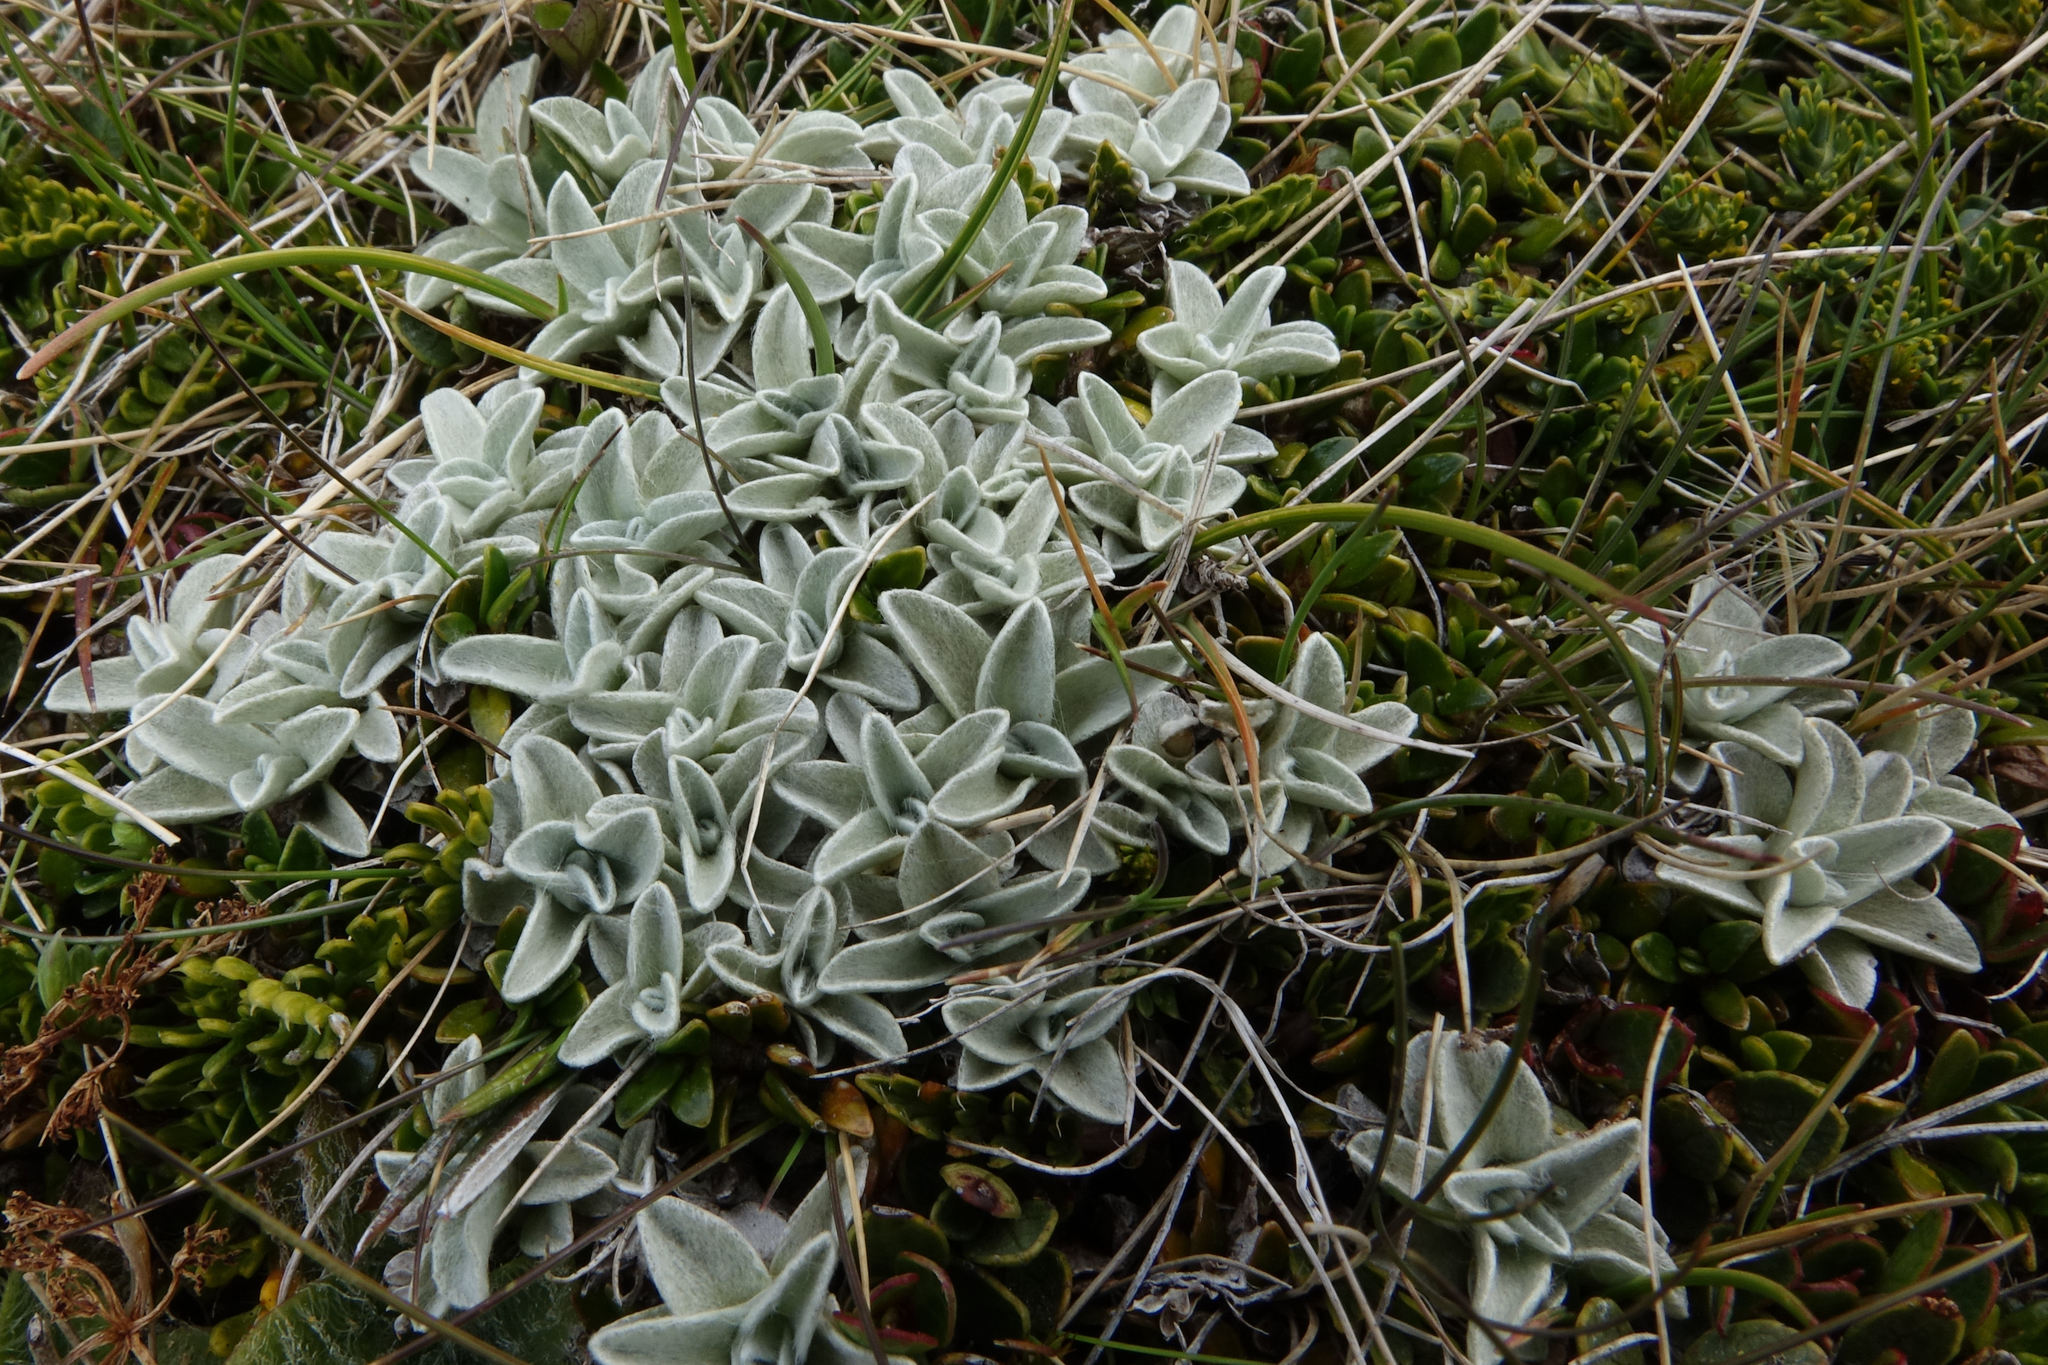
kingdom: Plantae
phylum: Tracheophyta
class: Magnoliopsida
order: Asterales
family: Asteraceae
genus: Argyrotegium
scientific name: Argyrotegium mackayi
